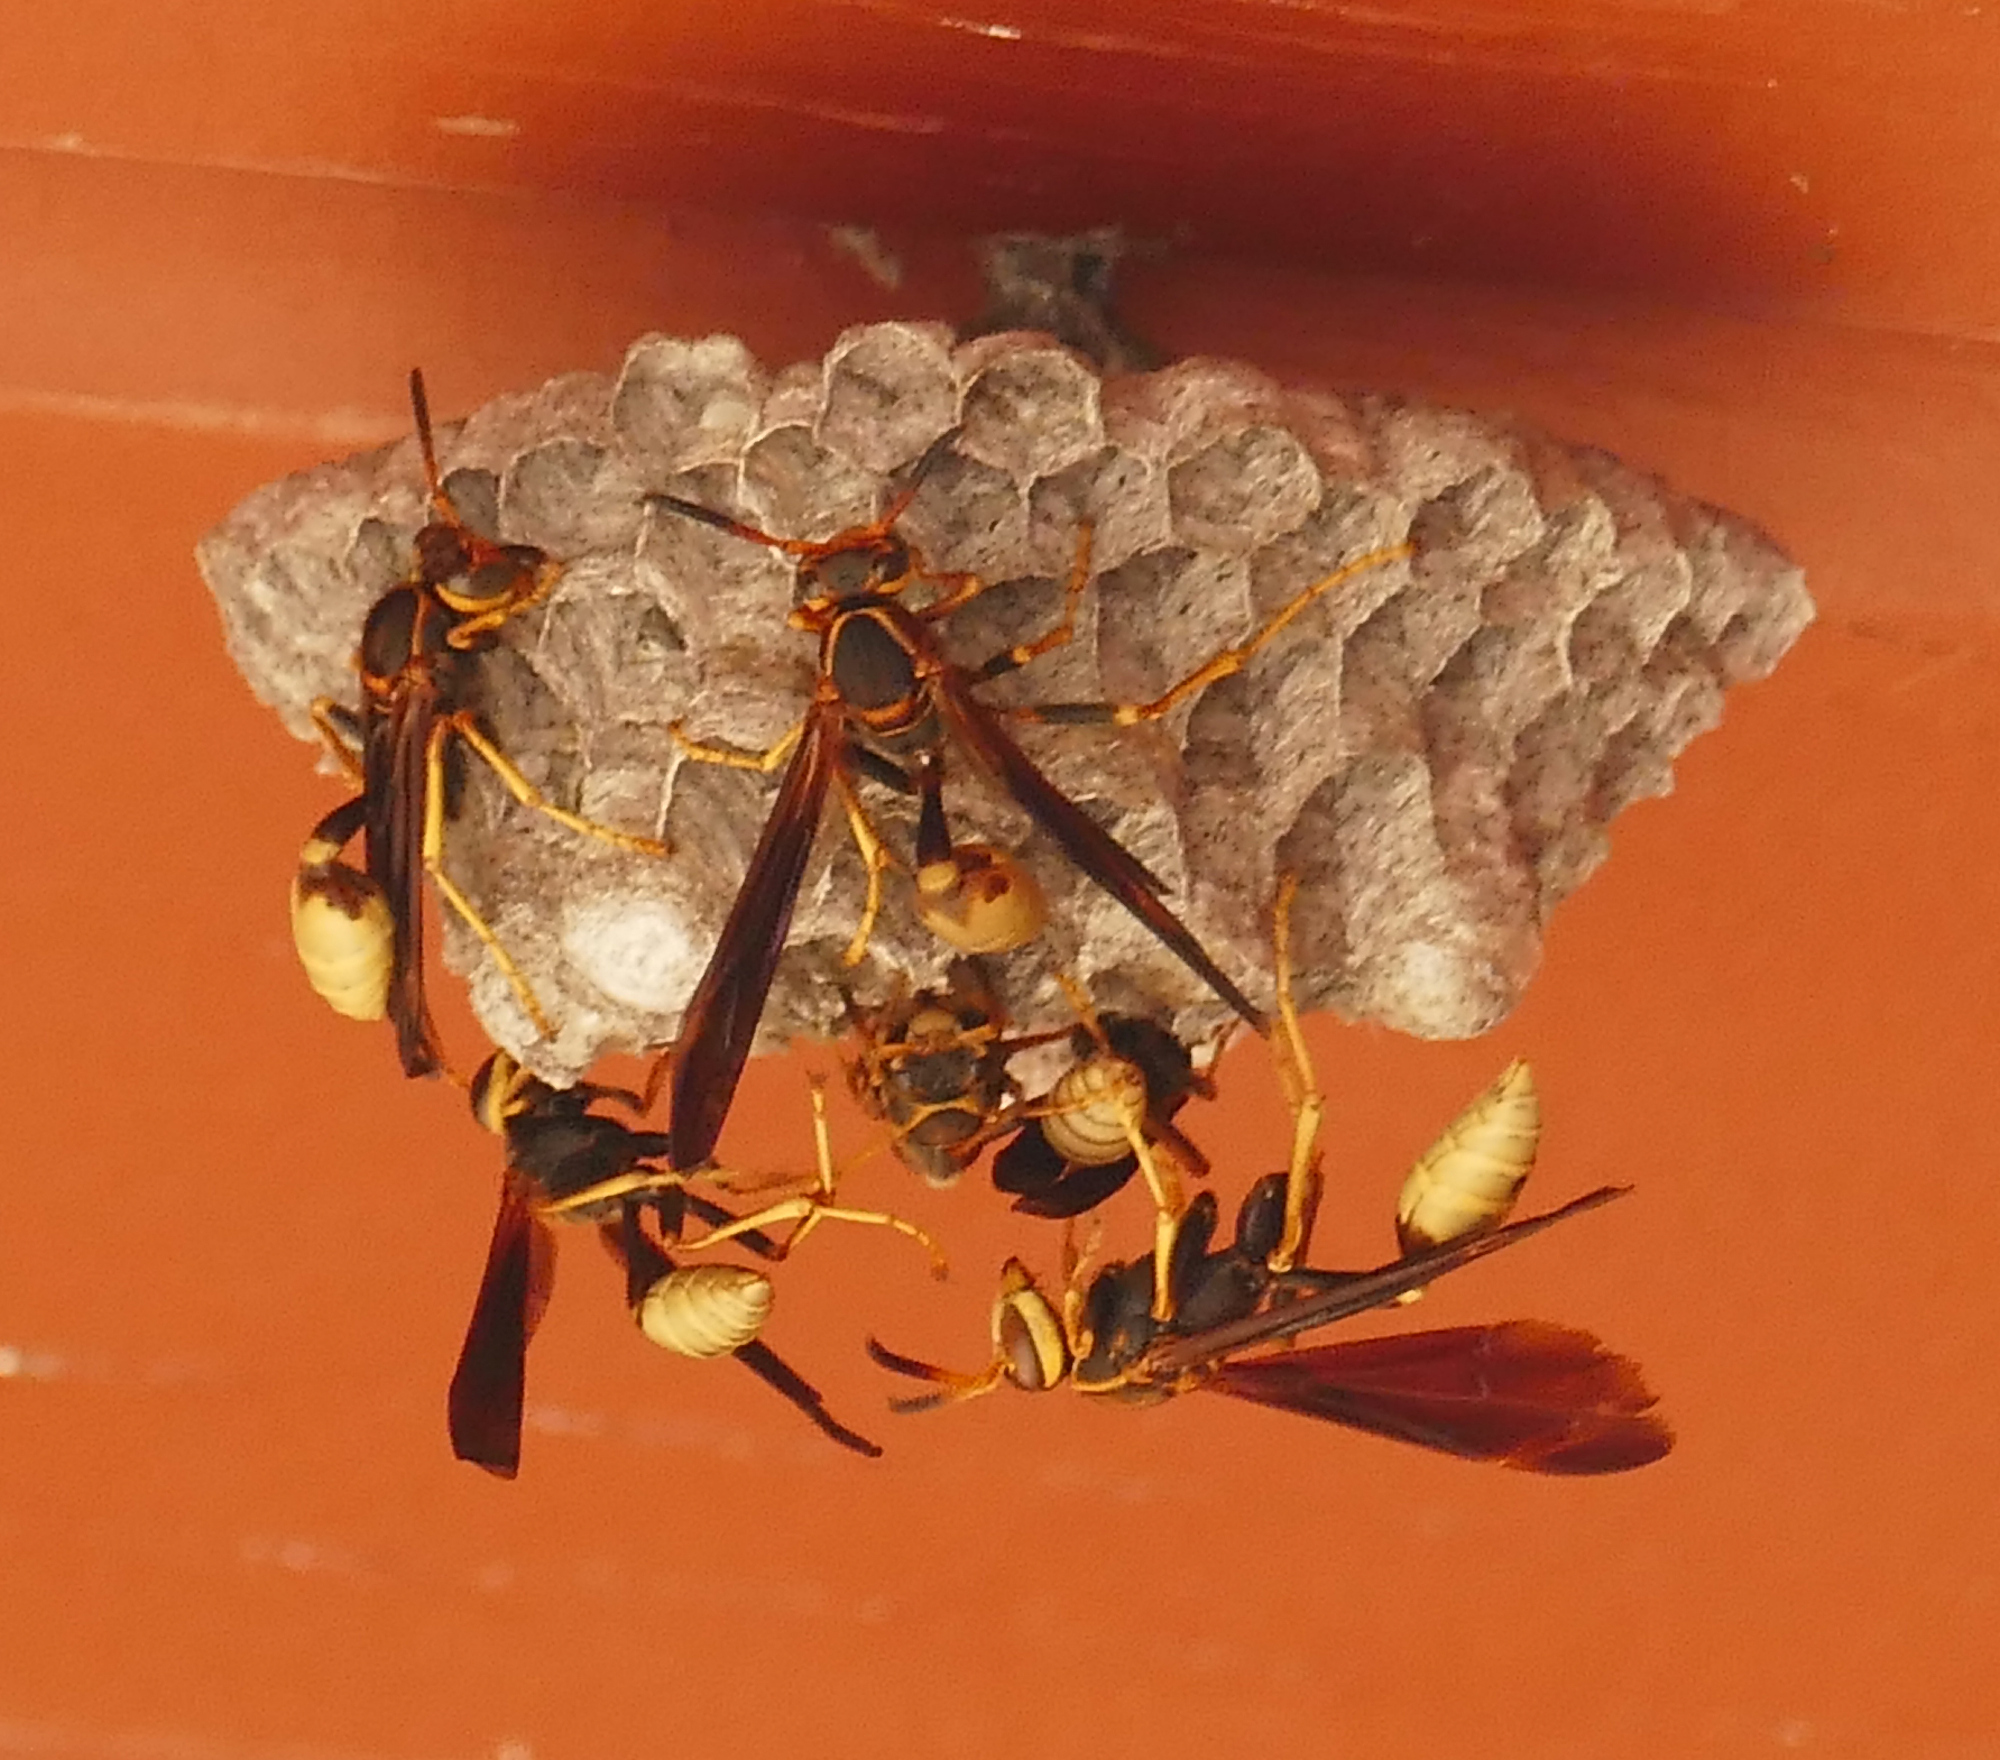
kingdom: Animalia
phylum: Arthropoda
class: Insecta
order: Hymenoptera
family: Vespidae
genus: Mischocyttarus
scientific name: Mischocyttarus navajo
